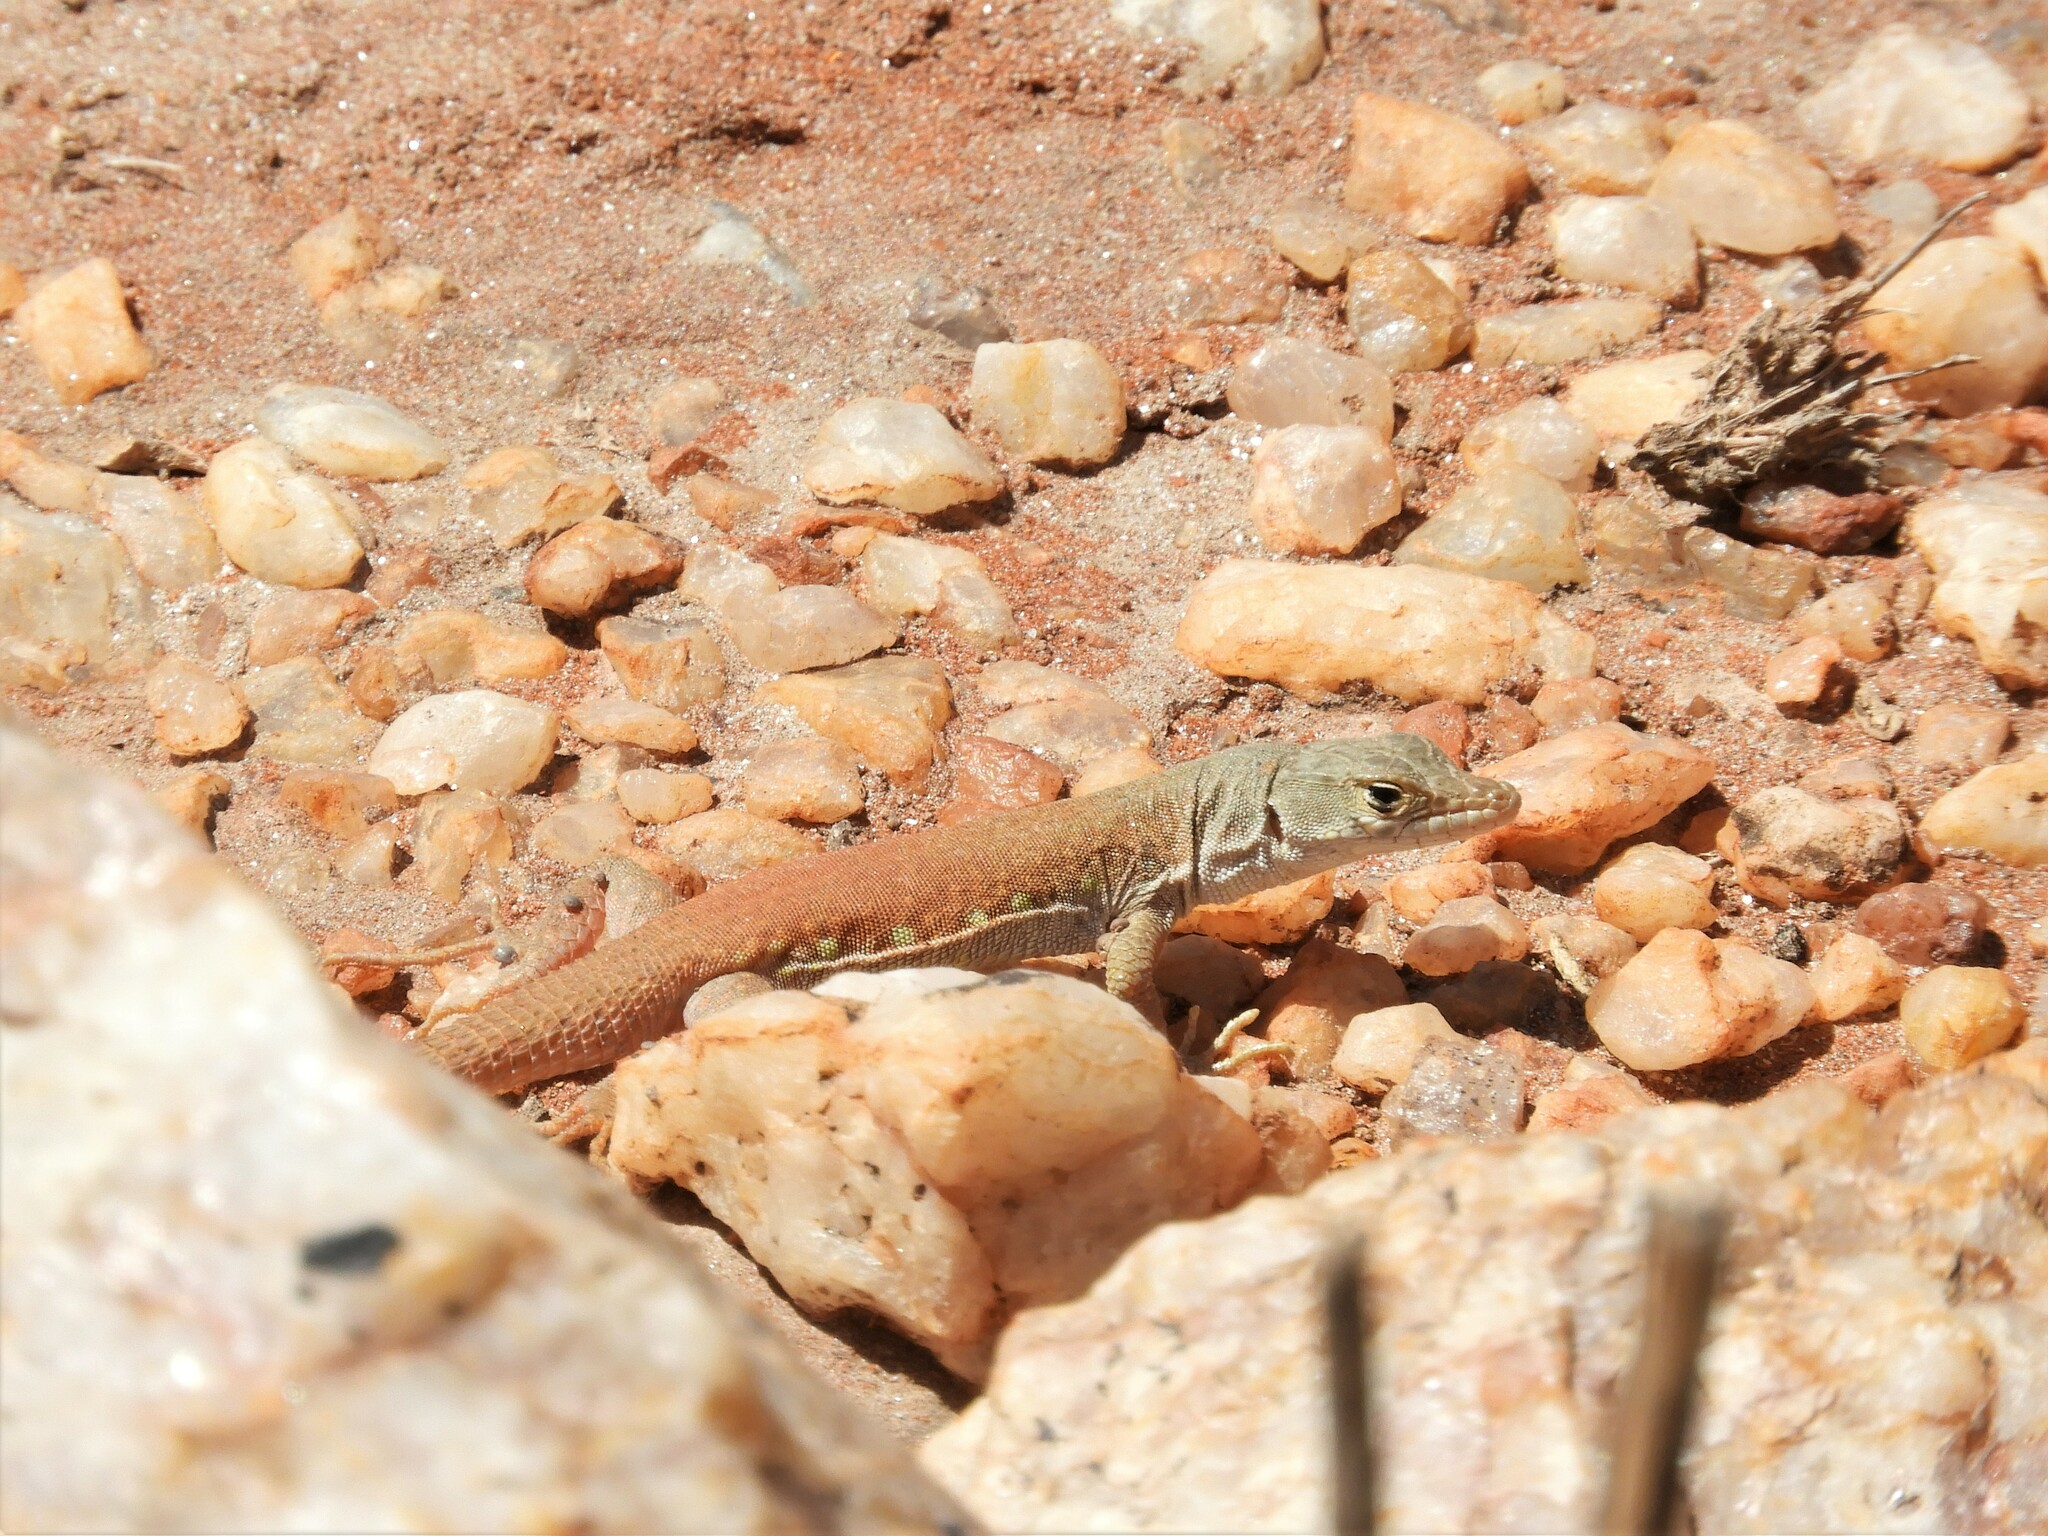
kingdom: Animalia
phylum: Chordata
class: Squamata
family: Lacertidae
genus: Pedioplanis
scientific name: Pedioplanis inornata
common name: Plain sand lizard
